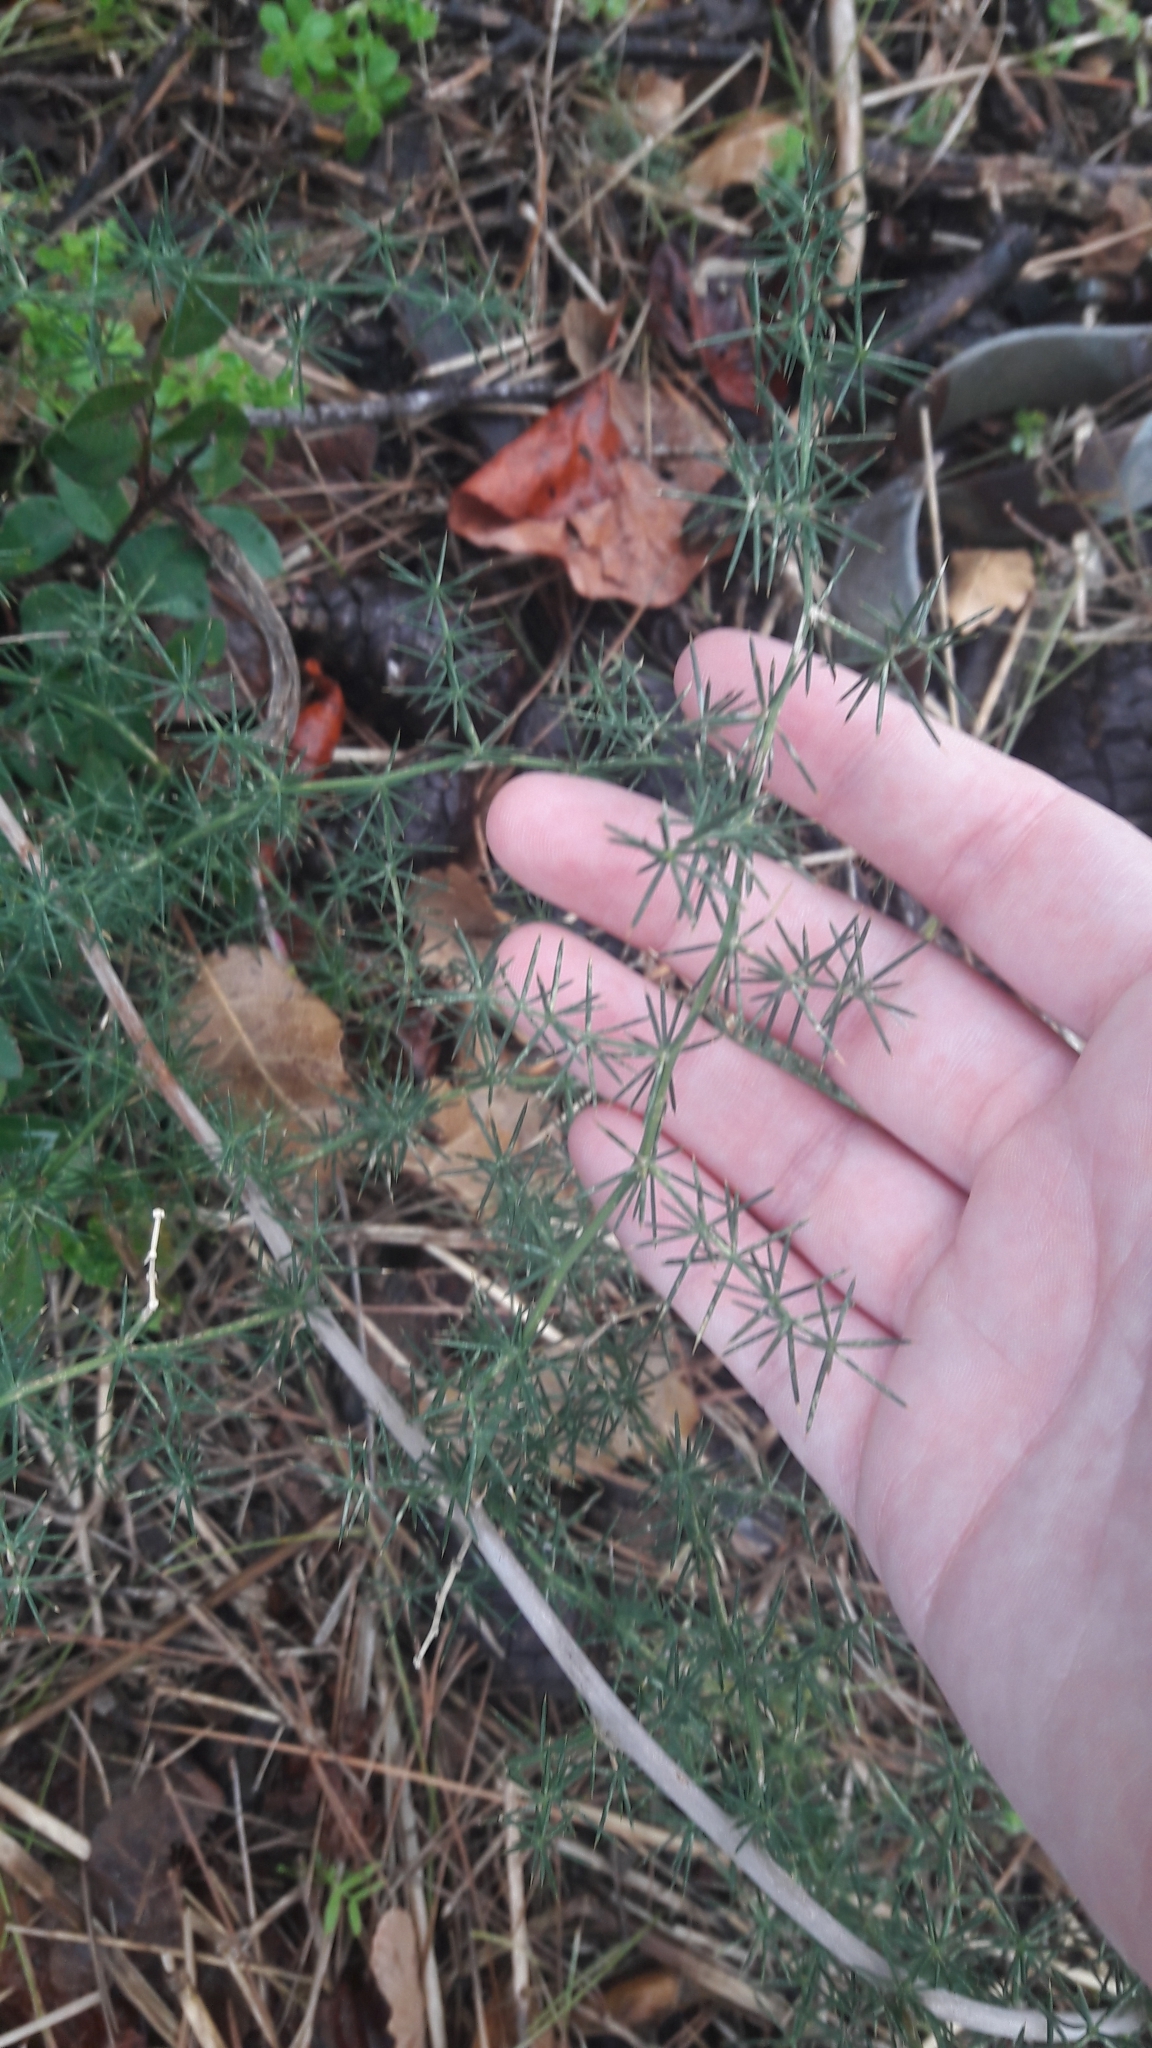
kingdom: Plantae
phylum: Tracheophyta
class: Liliopsida
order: Asparagales
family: Asparagaceae
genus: Asparagus
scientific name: Asparagus aphyllus
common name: Mediterranean asparagus
